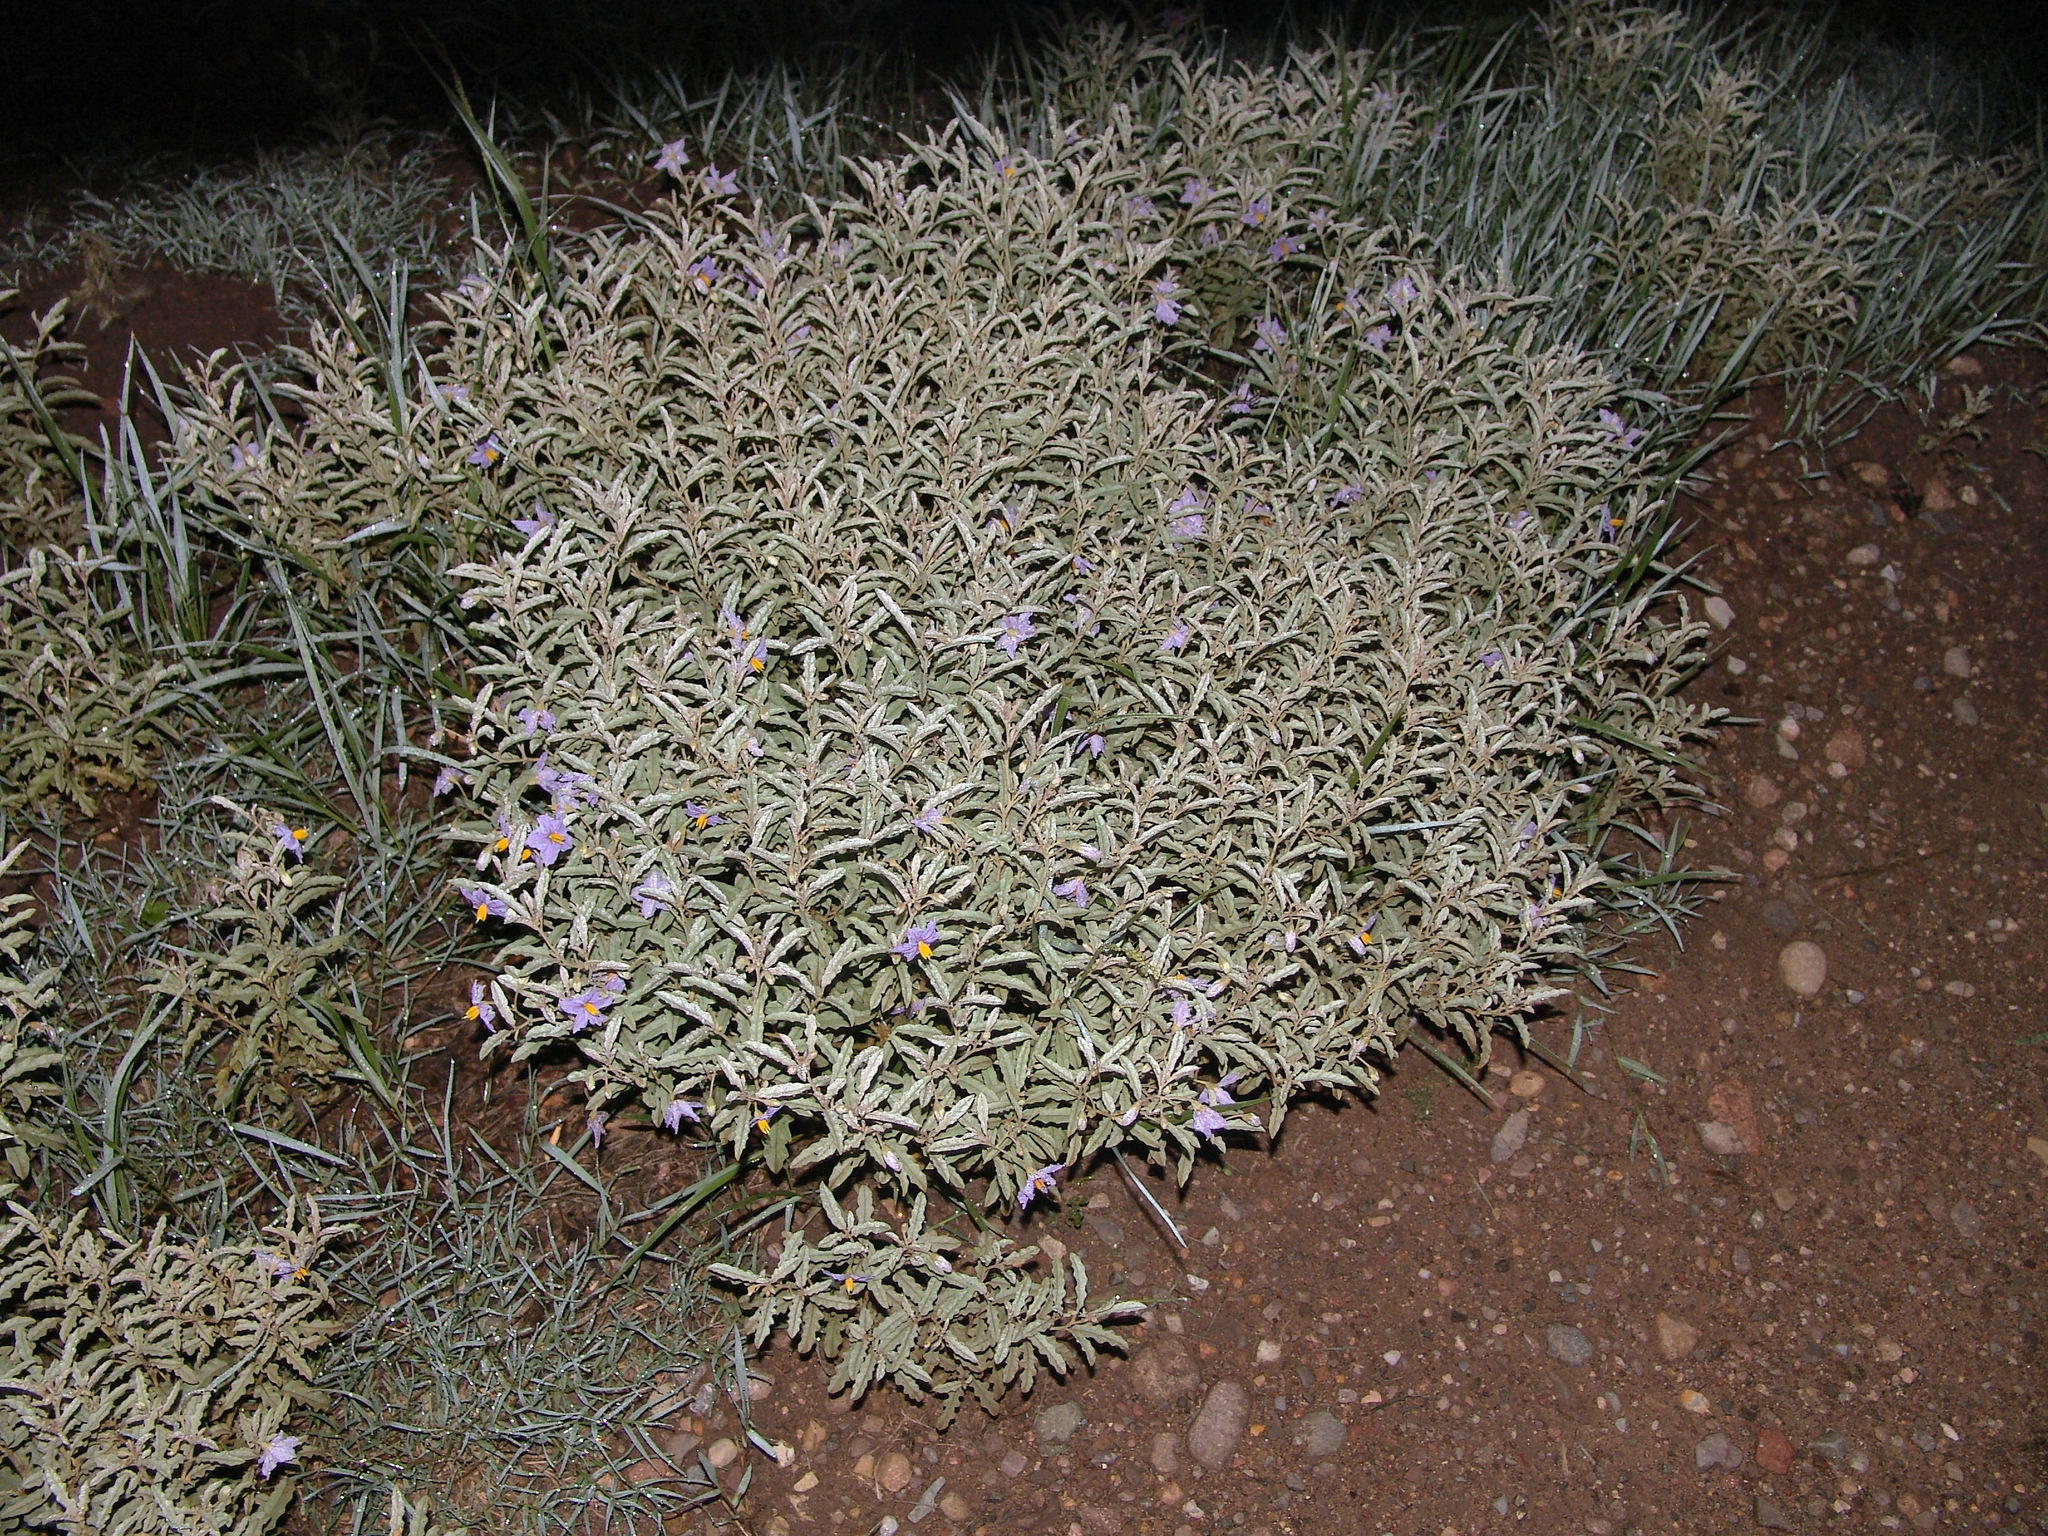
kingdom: Plantae
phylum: Tracheophyta
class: Magnoliopsida
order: Solanales
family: Solanaceae
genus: Solanum
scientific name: Solanum elaeagnifolium
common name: Silverleaf nightshade
